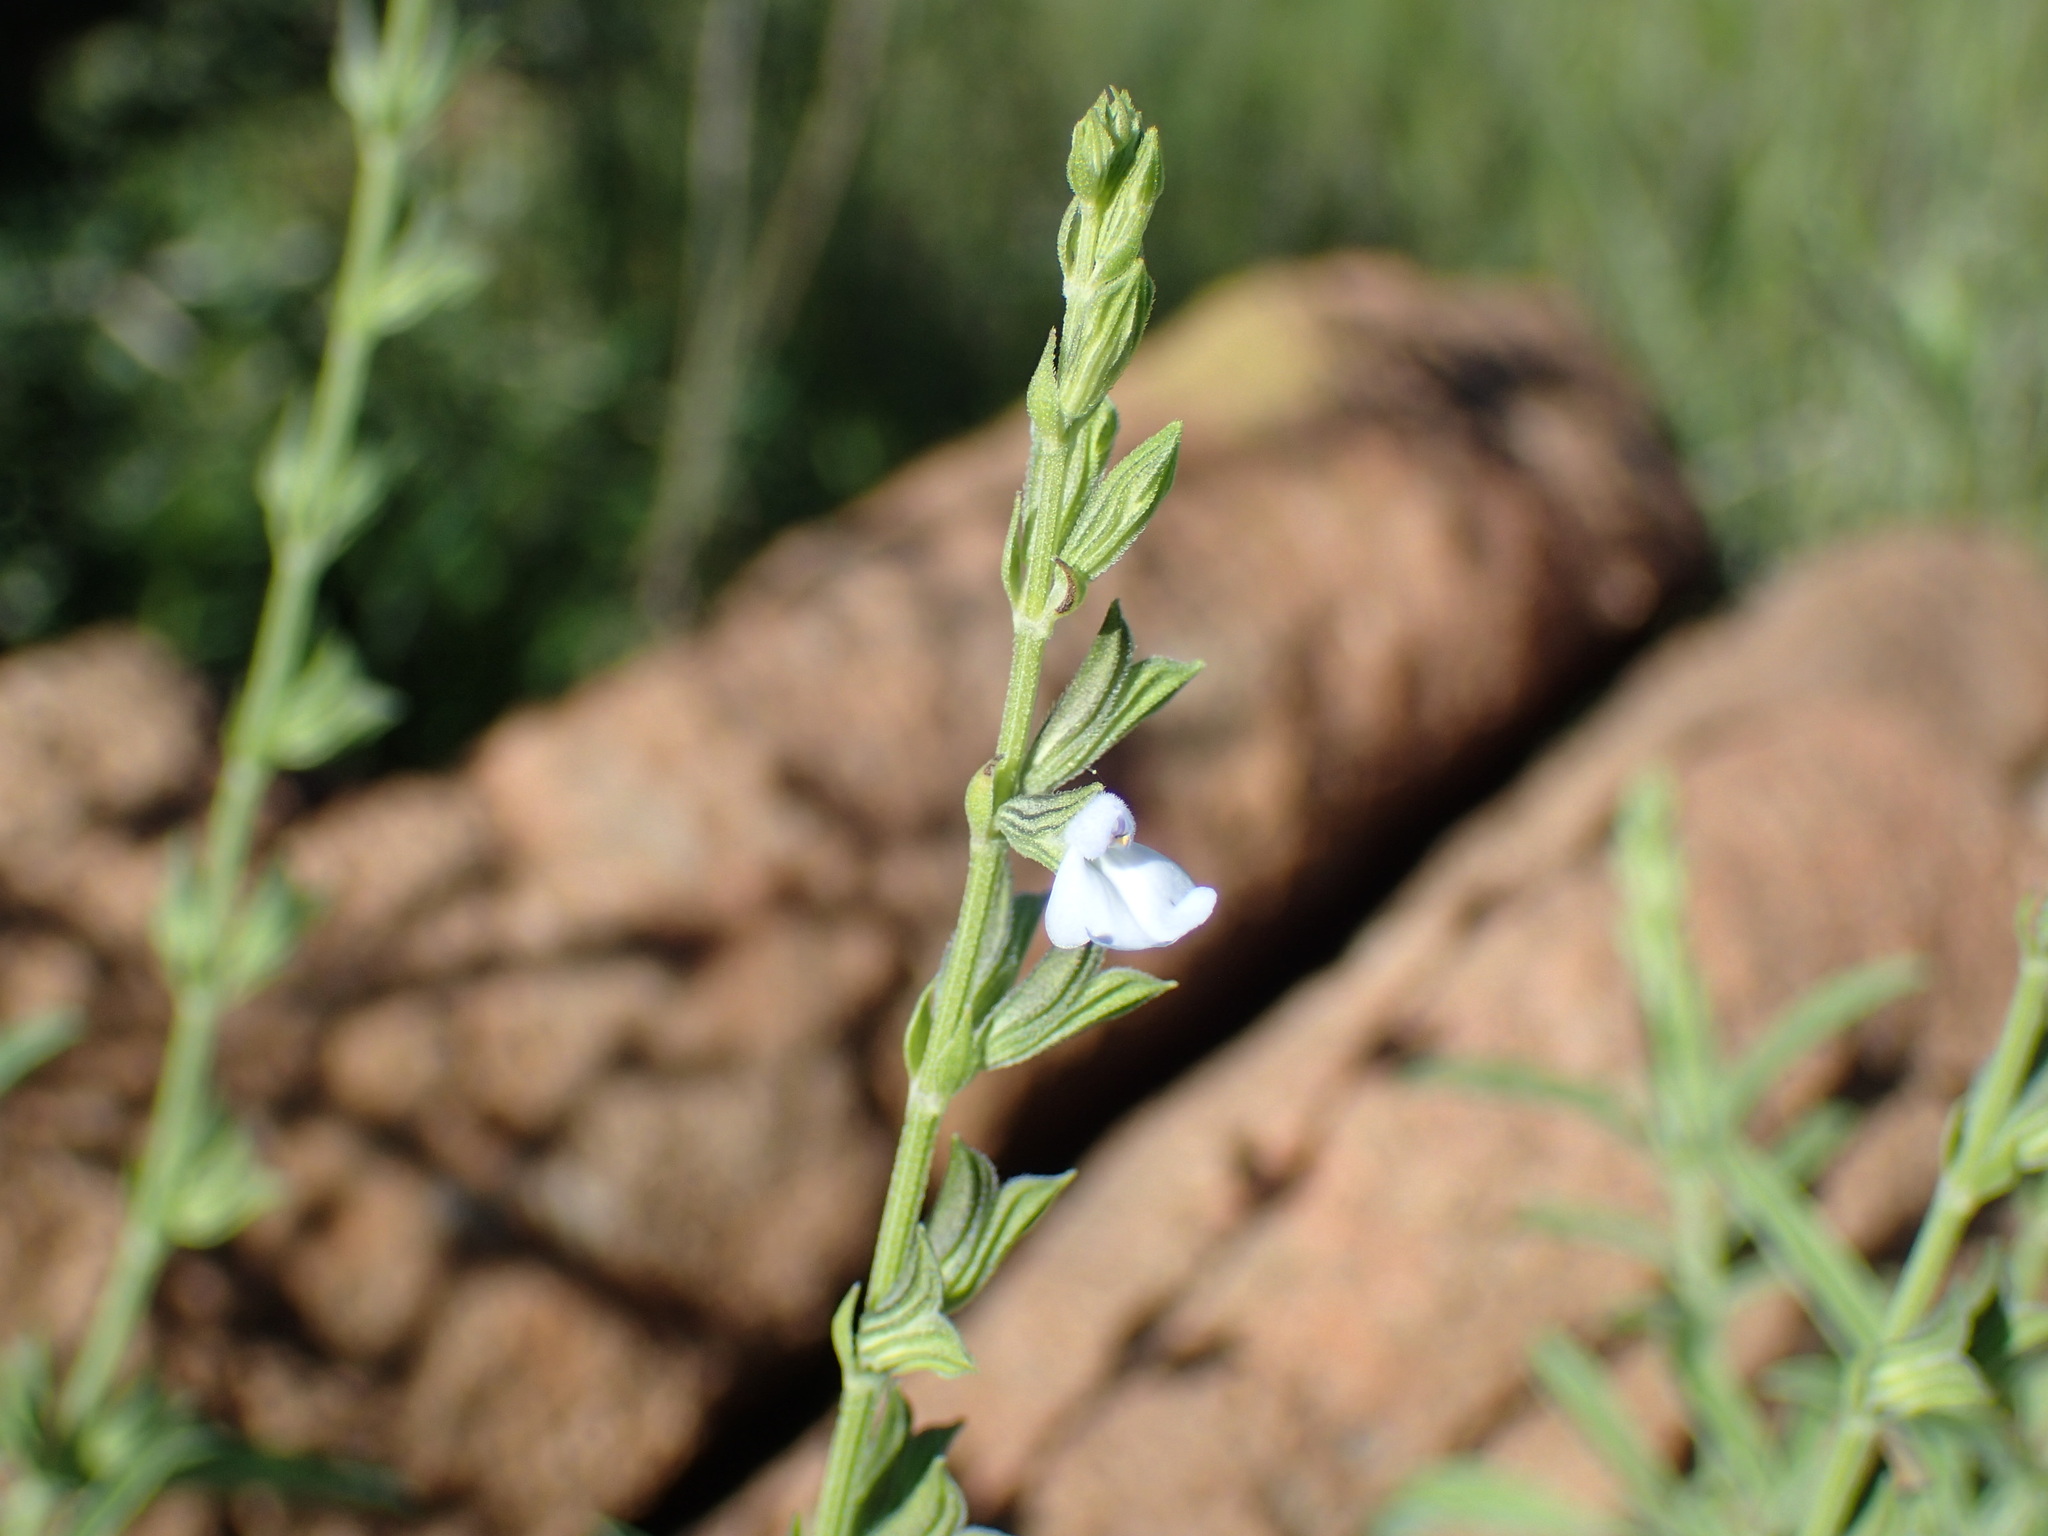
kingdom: Plantae
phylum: Tracheophyta
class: Magnoliopsida
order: Lamiales
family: Lamiaceae
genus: Salvia
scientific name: Salvia reflexa
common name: Mintweed
